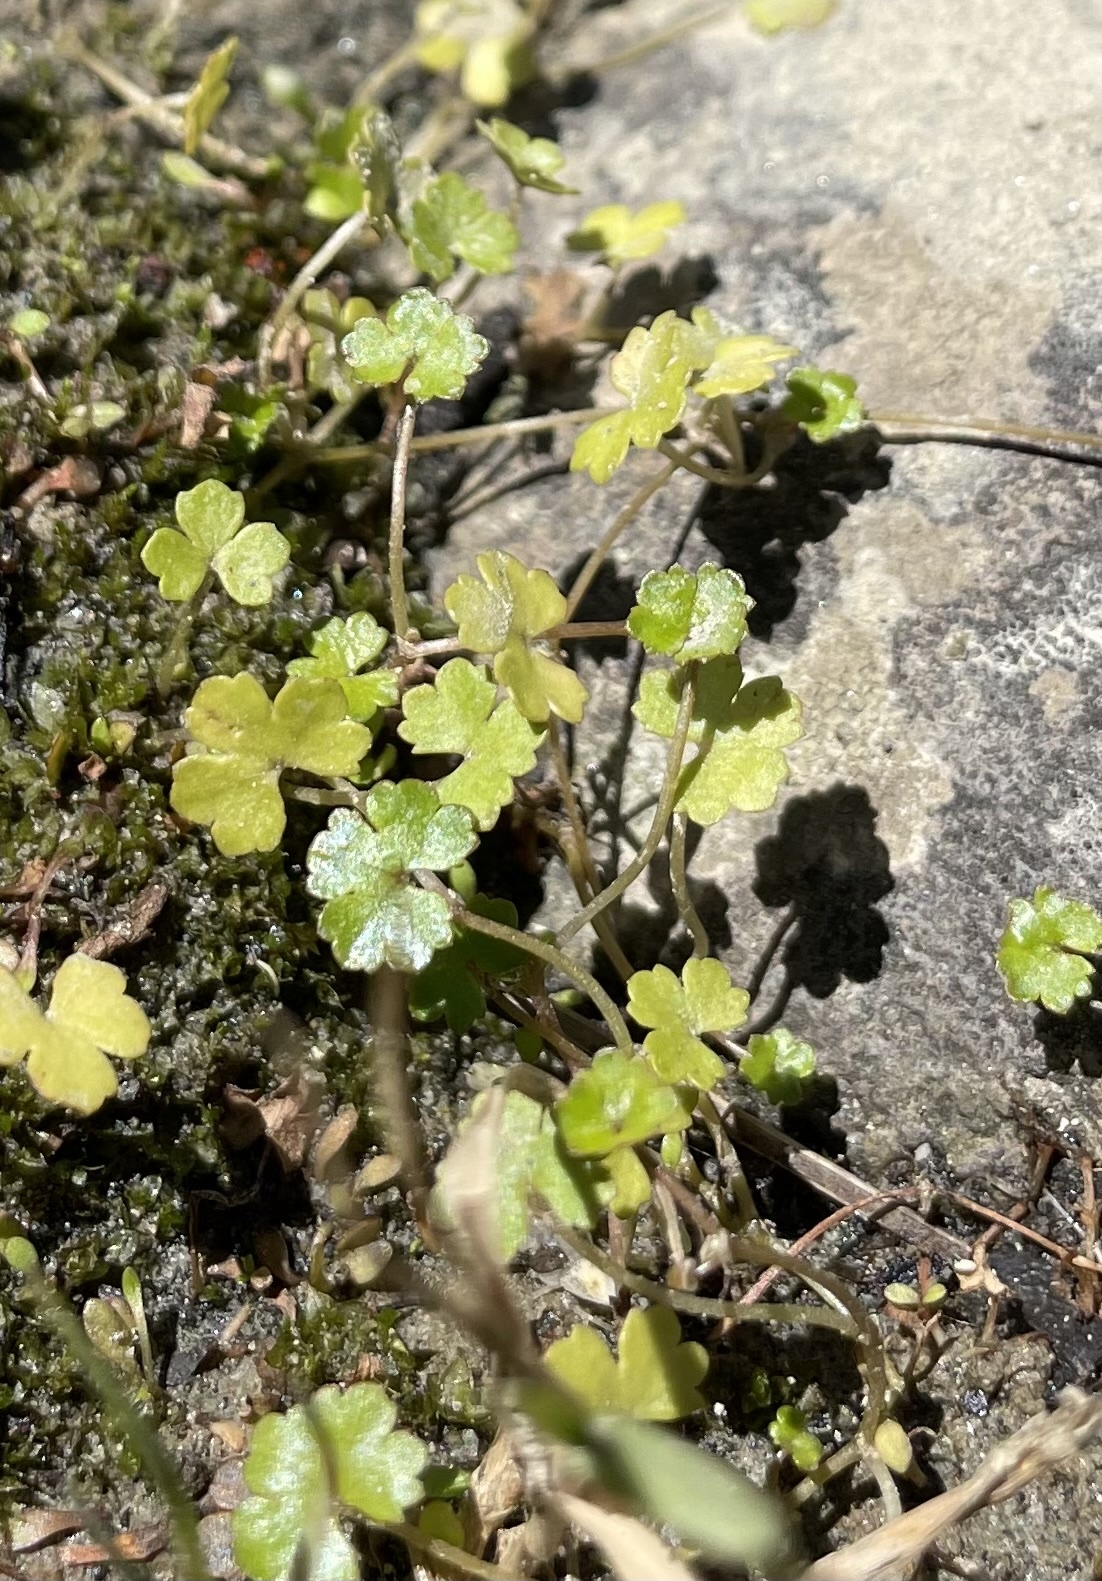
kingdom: Plantae
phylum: Tracheophyta
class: Magnoliopsida
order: Apiales
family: Araliaceae
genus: Hydrocotyle
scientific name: Hydrocotyle heteromeria
